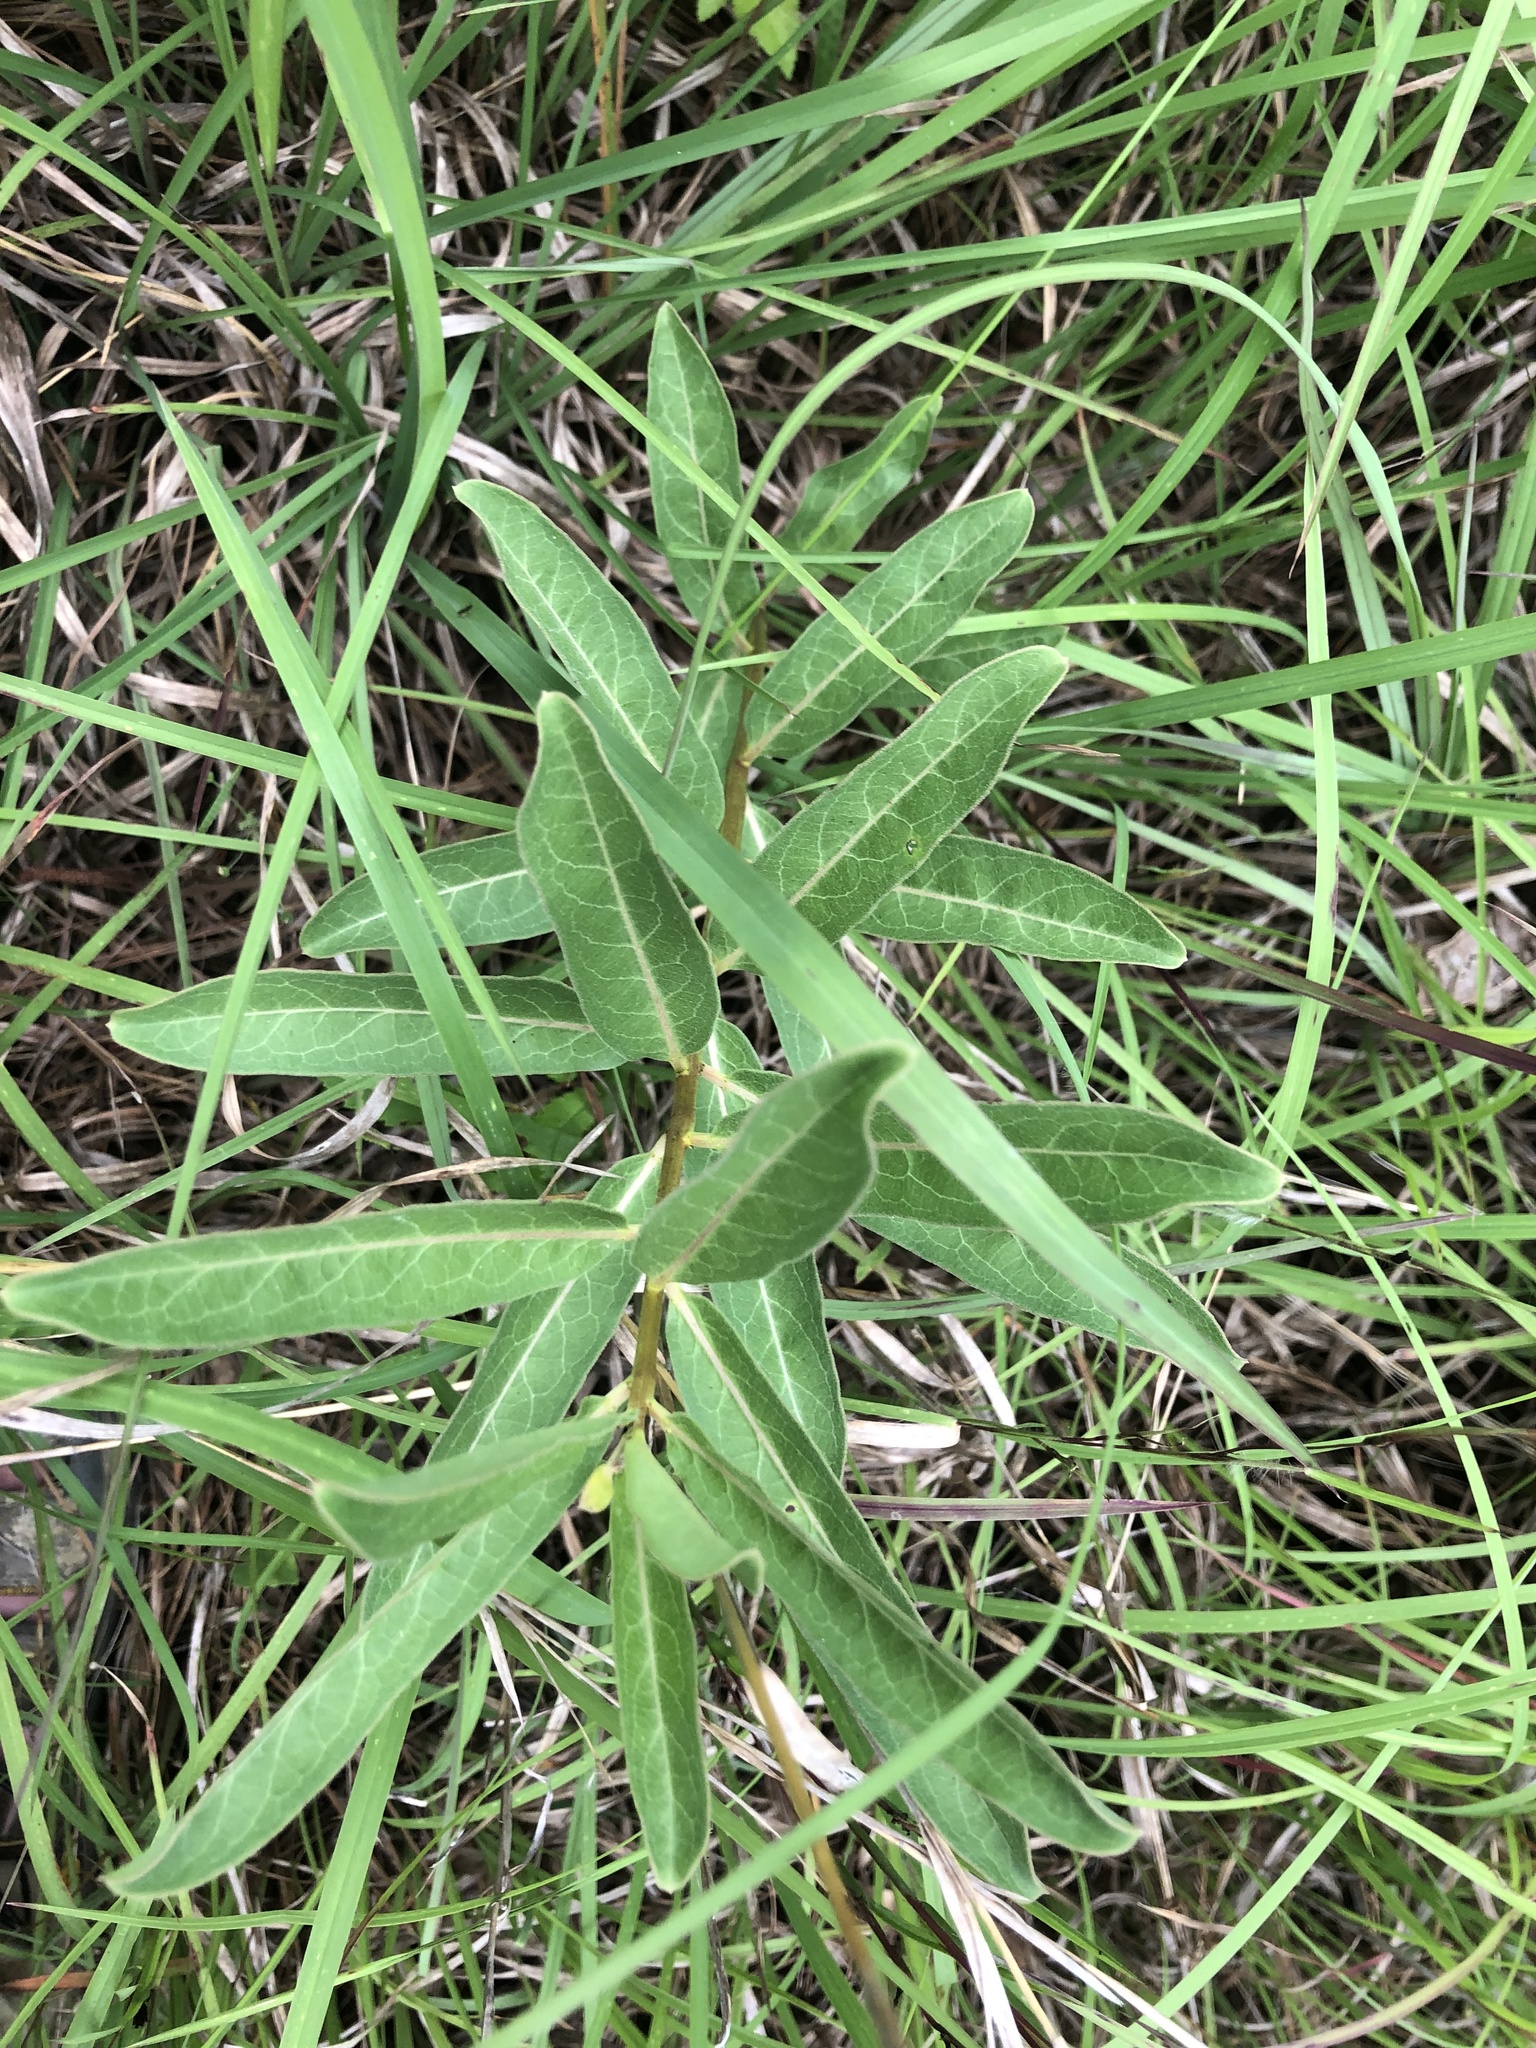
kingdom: Plantae
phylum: Tracheophyta
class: Magnoliopsida
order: Gentianales
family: Apocynaceae
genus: Asclepias
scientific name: Asclepias viridis
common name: Antelope-horns
